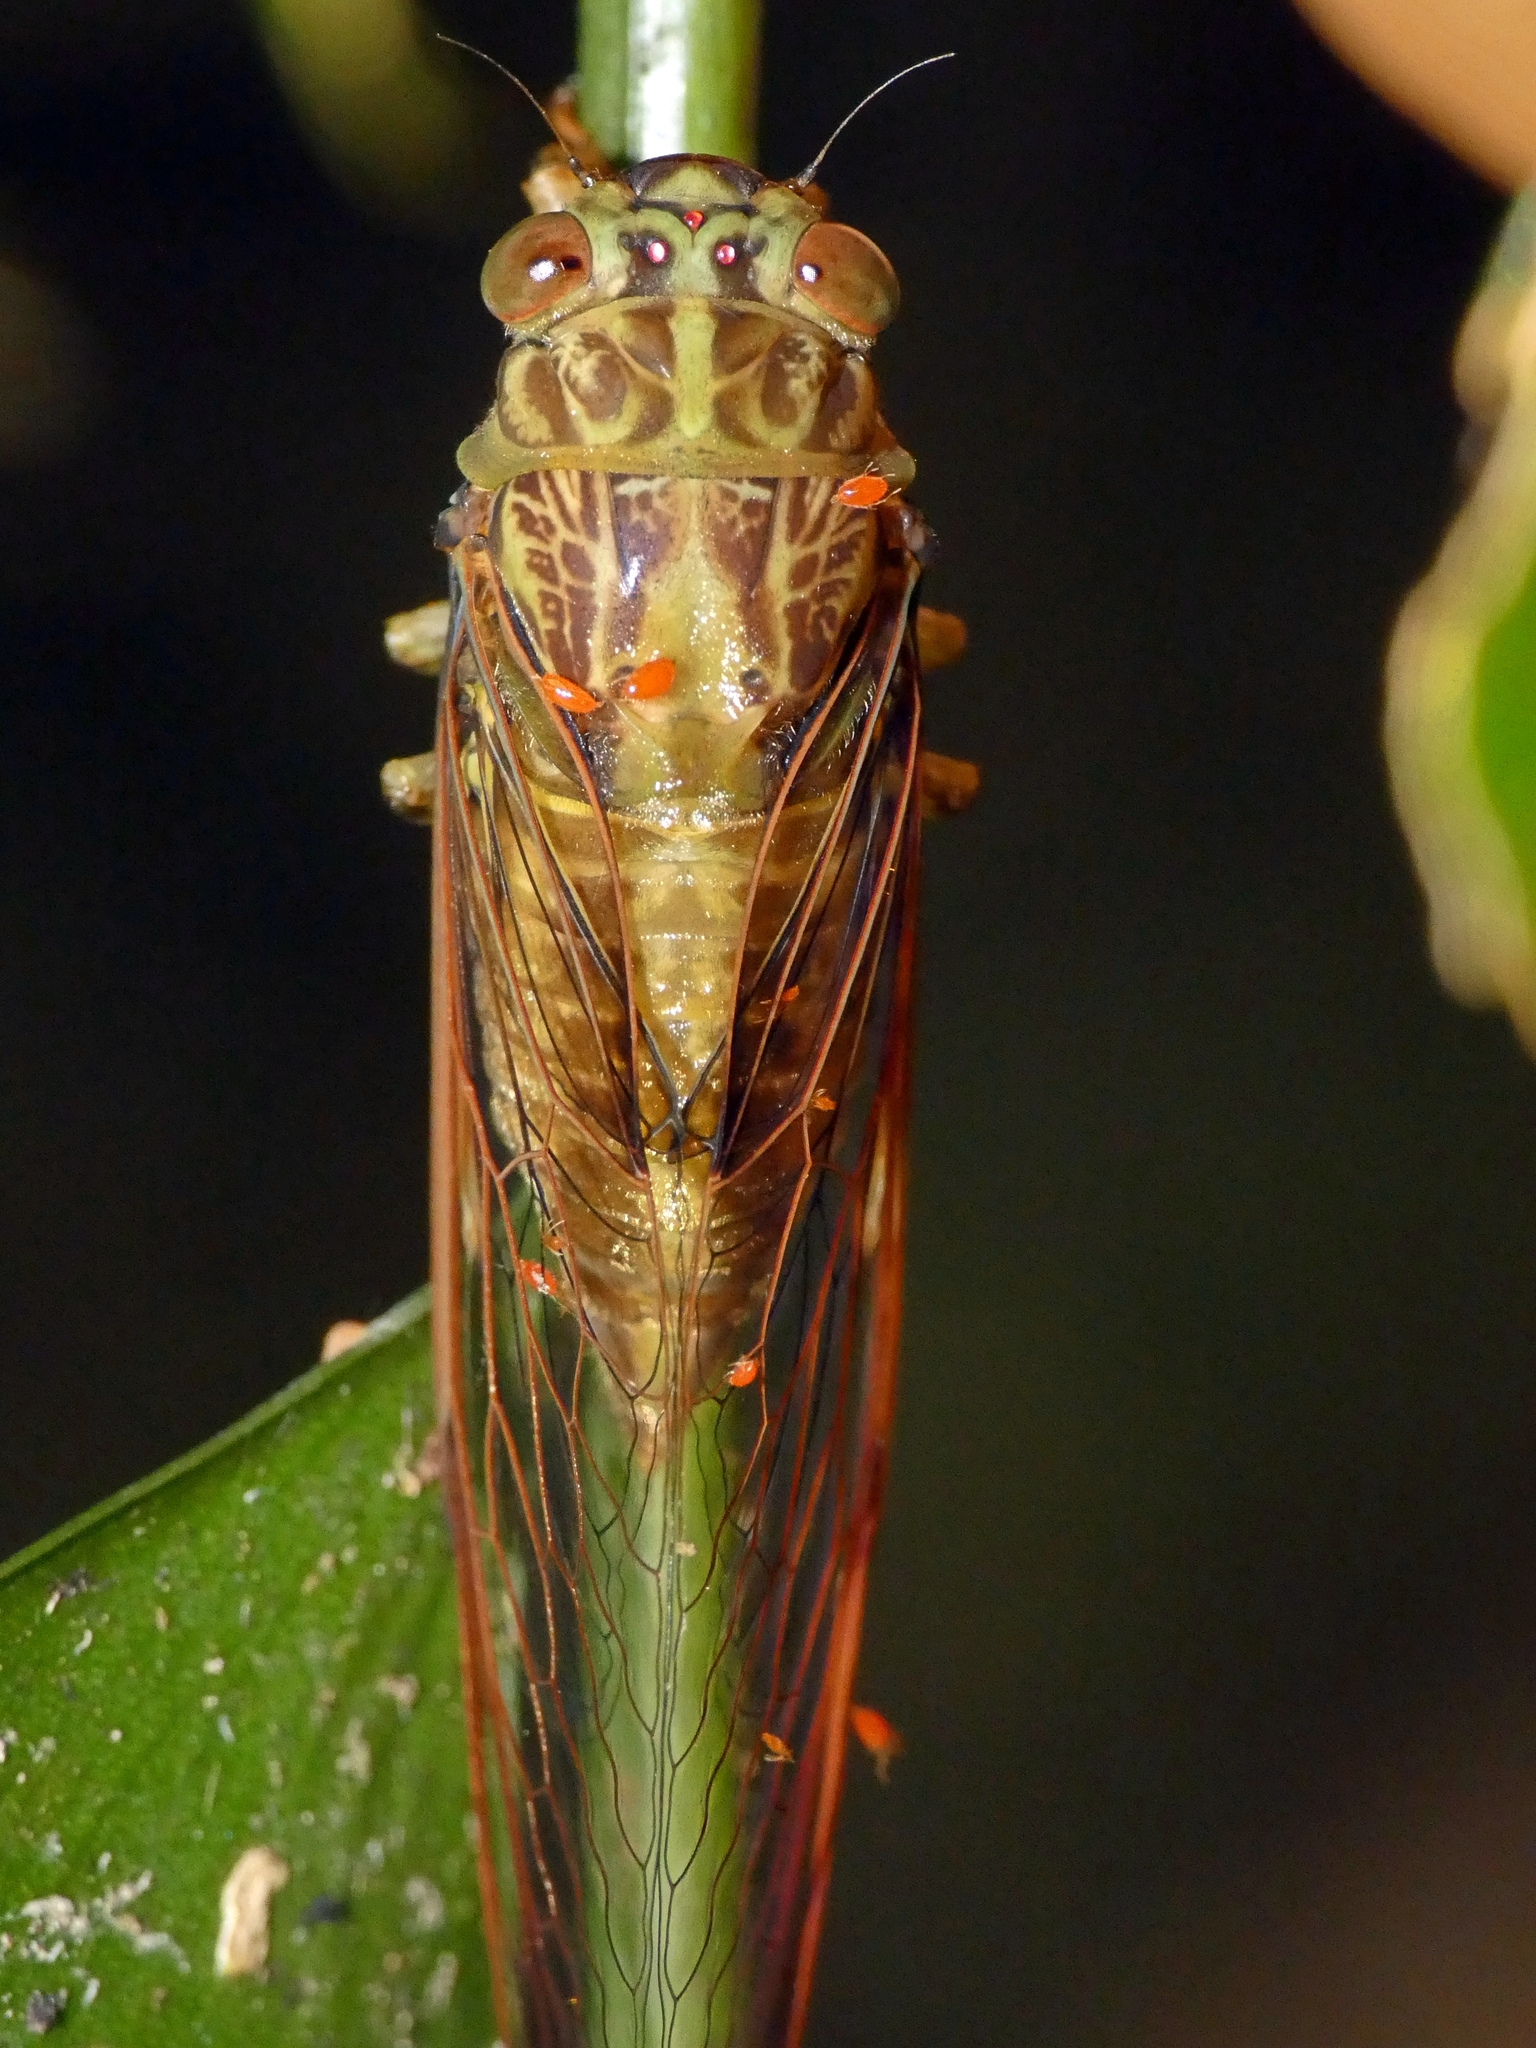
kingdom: Animalia
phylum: Arthropoda
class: Insecta
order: Hemiptera
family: Cicadidae
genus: Chlorocysta
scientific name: Chlorocysta suffusa
